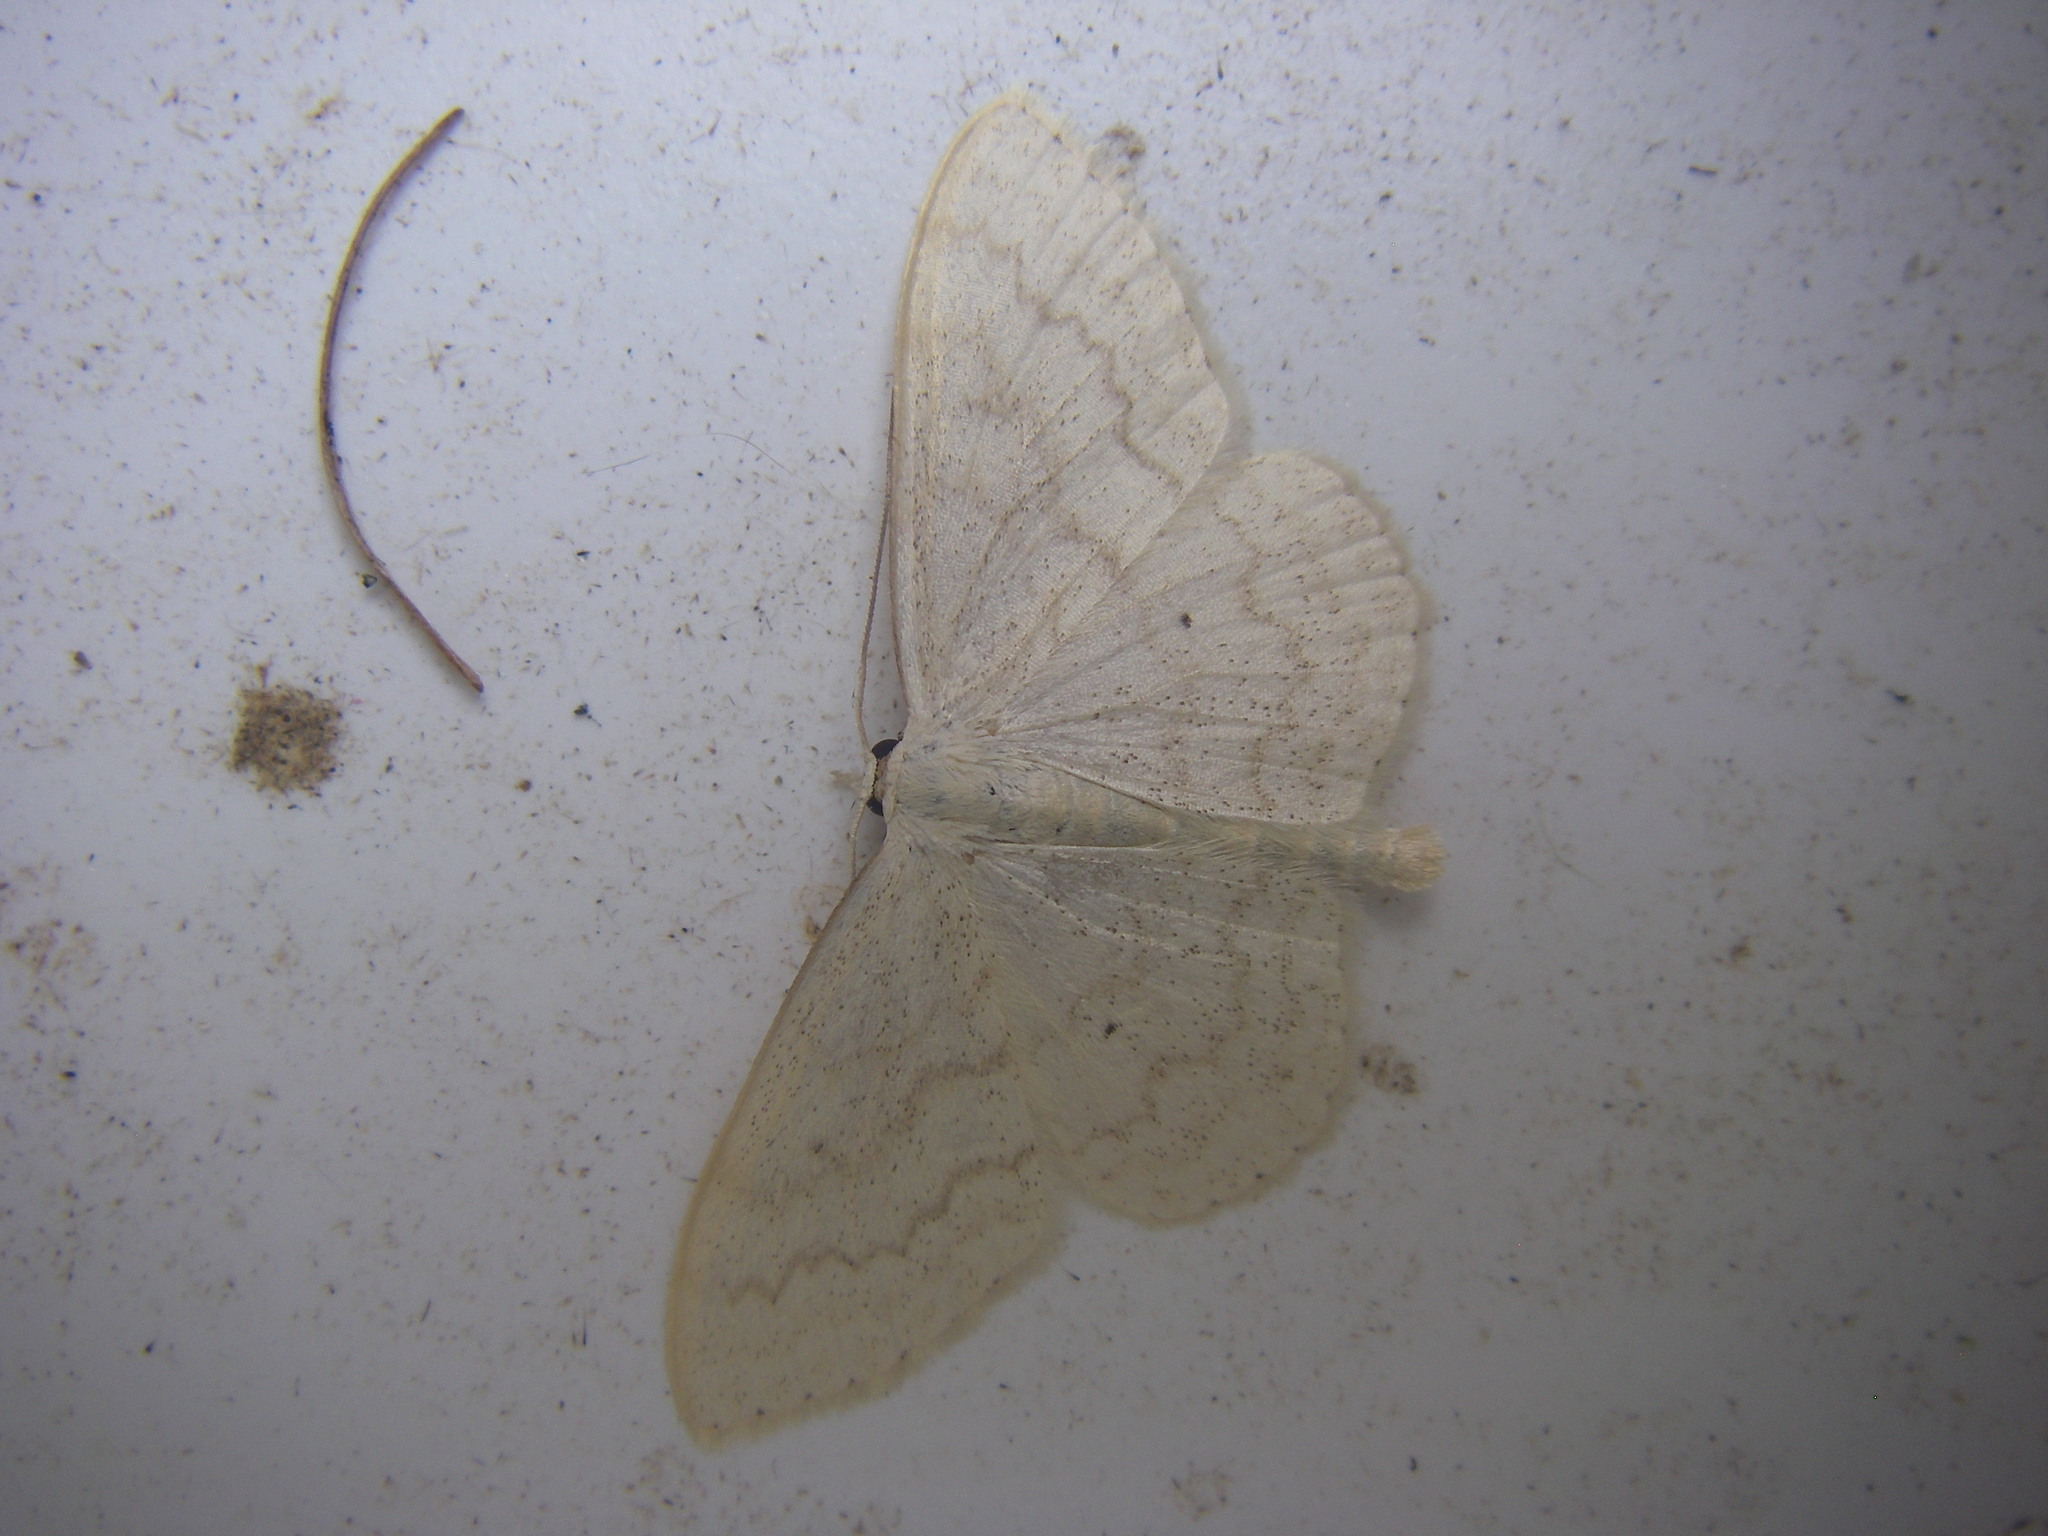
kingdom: Animalia
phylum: Arthropoda
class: Insecta
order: Lepidoptera
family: Geometridae
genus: Scopula
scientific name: Scopula floslactata
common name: Cream wave
